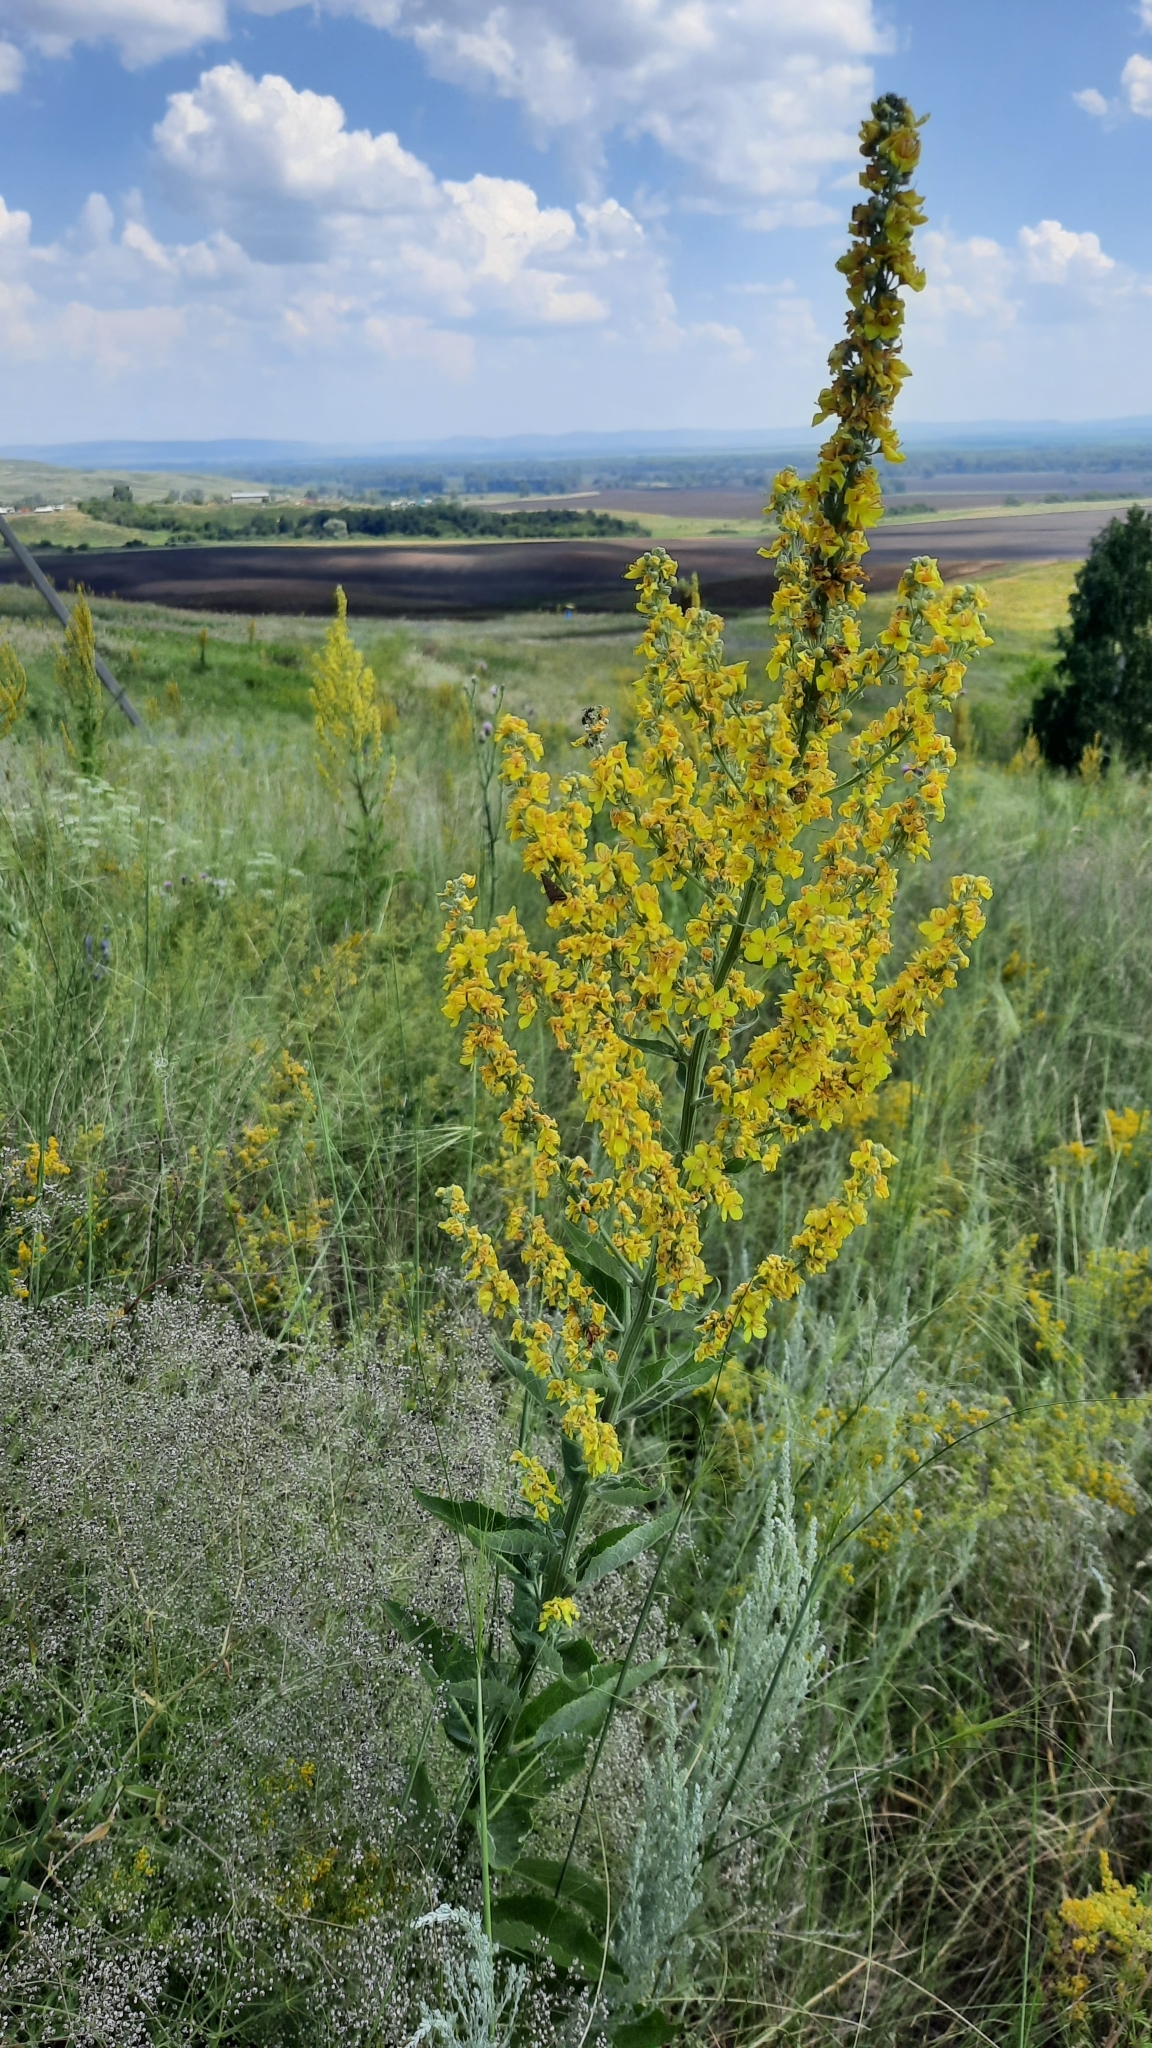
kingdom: Plantae
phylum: Tracheophyta
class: Magnoliopsida
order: Lamiales
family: Scrophulariaceae
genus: Verbascum
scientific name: Verbascum lychnitis
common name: White mullein
